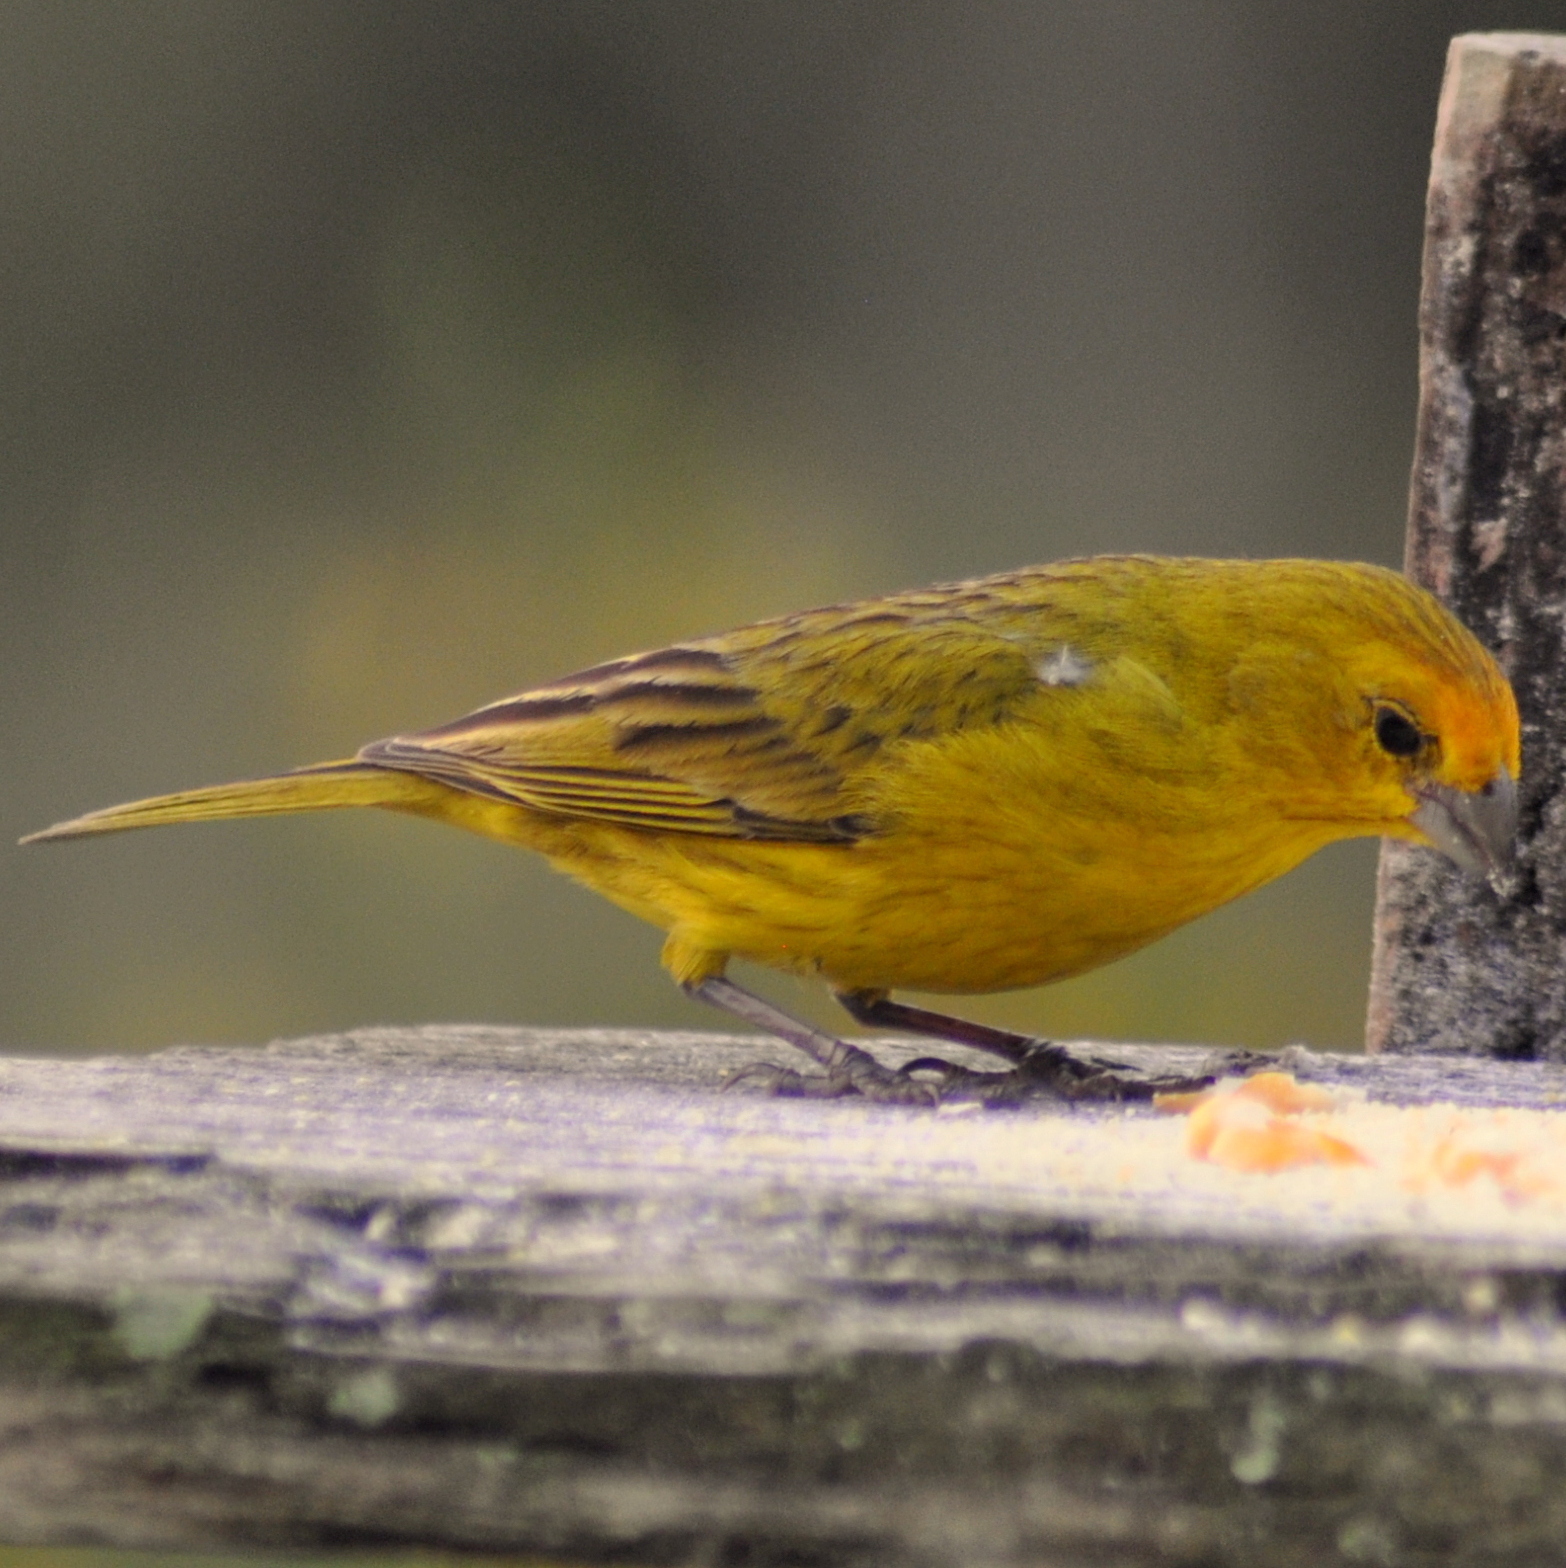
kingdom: Animalia
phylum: Chordata
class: Aves
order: Passeriformes
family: Thraupidae
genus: Sicalis
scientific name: Sicalis flaveola
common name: Saffron finch
